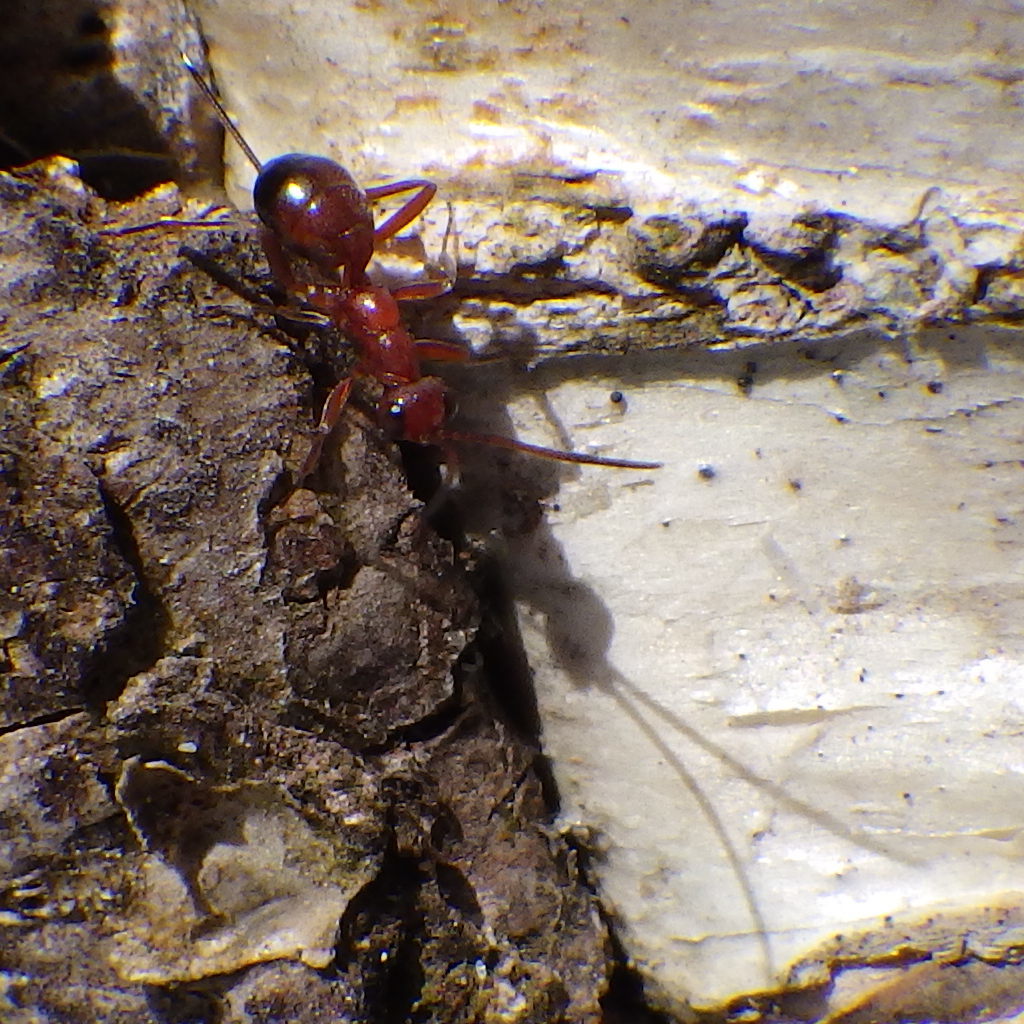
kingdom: Animalia
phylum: Arthropoda
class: Insecta
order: Hymenoptera
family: Ichneumonidae
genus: Gelis
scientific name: Gelis
